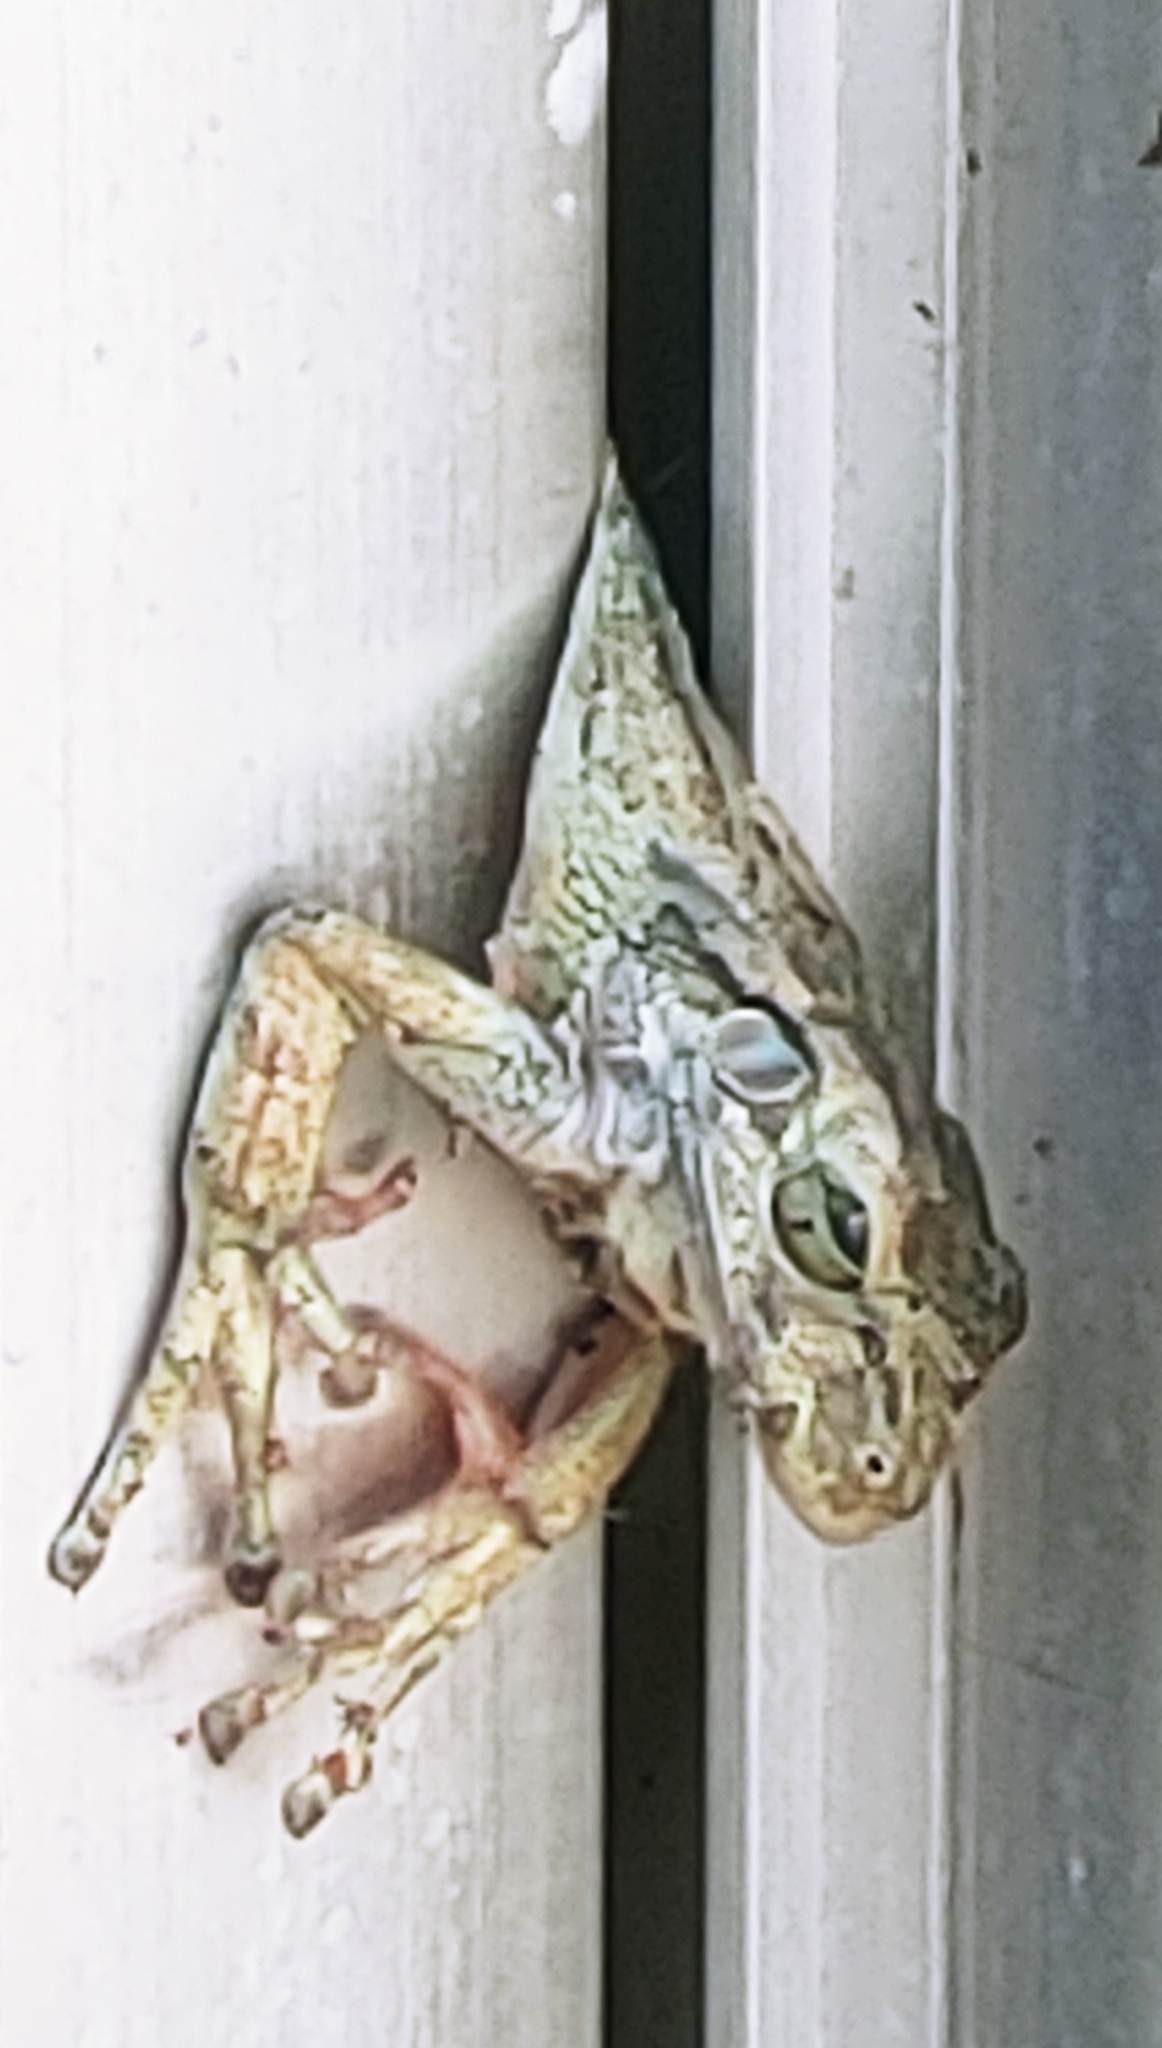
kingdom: Animalia
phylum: Chordata
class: Amphibia
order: Anura
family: Hylidae
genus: Osteopilus
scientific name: Osteopilus septentrionalis
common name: Cuban treefrog
